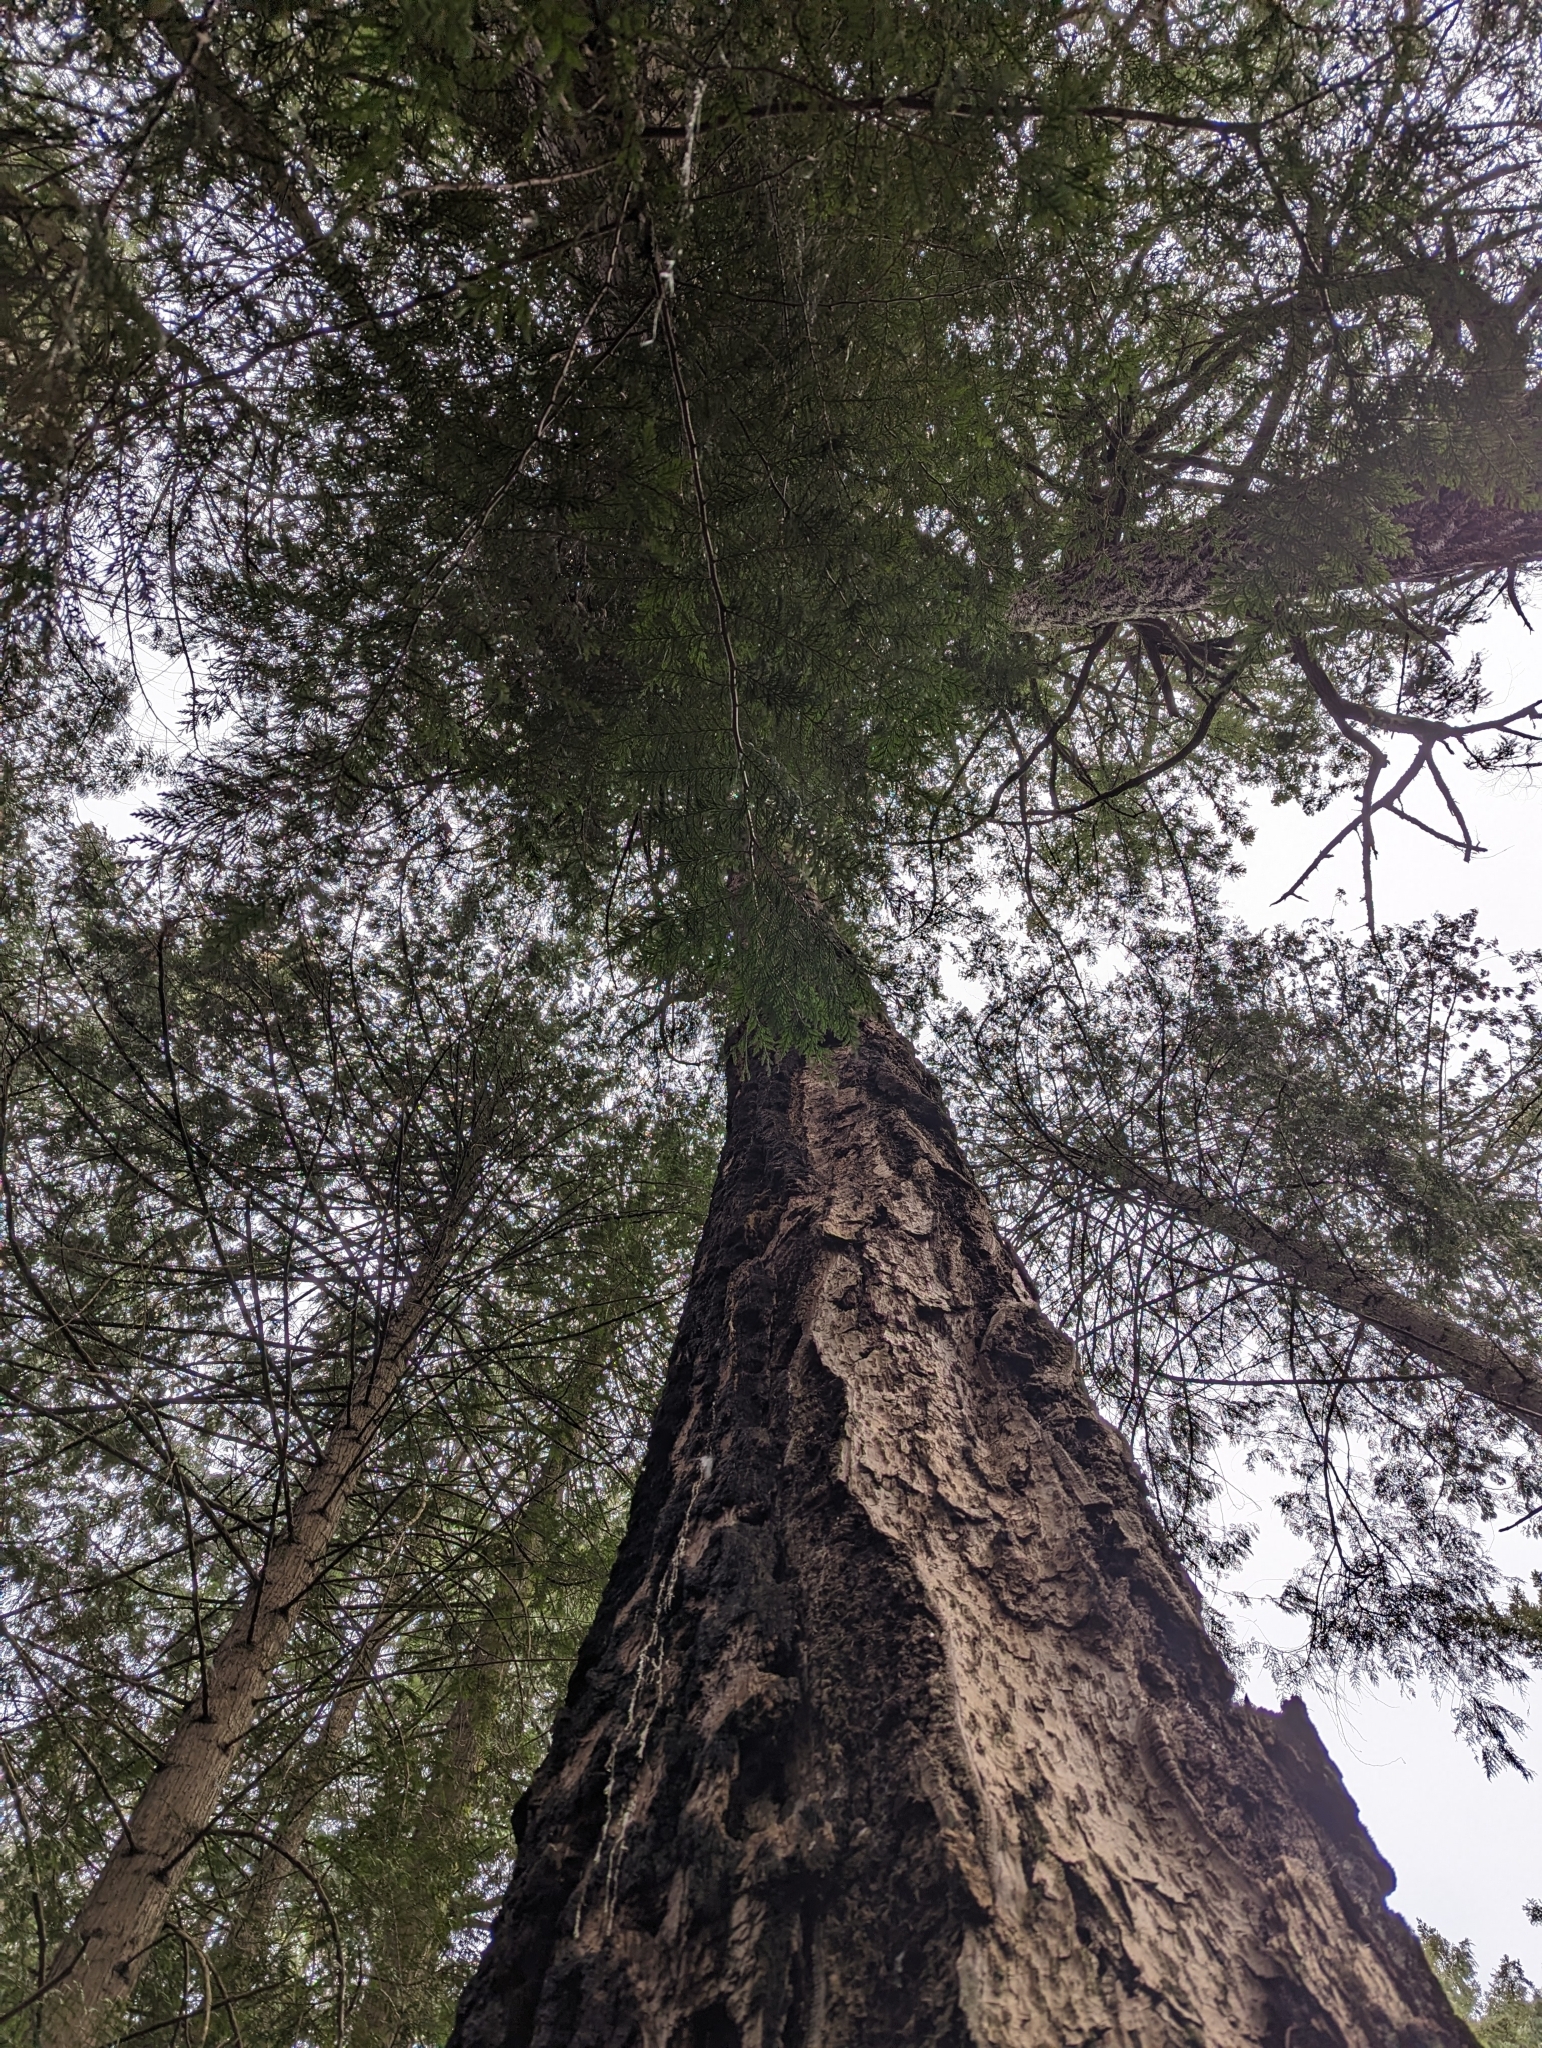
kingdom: Plantae
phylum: Tracheophyta
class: Pinopsida
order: Pinales
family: Pinaceae
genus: Pseudotsuga
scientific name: Pseudotsuga menziesii
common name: Douglas fir
